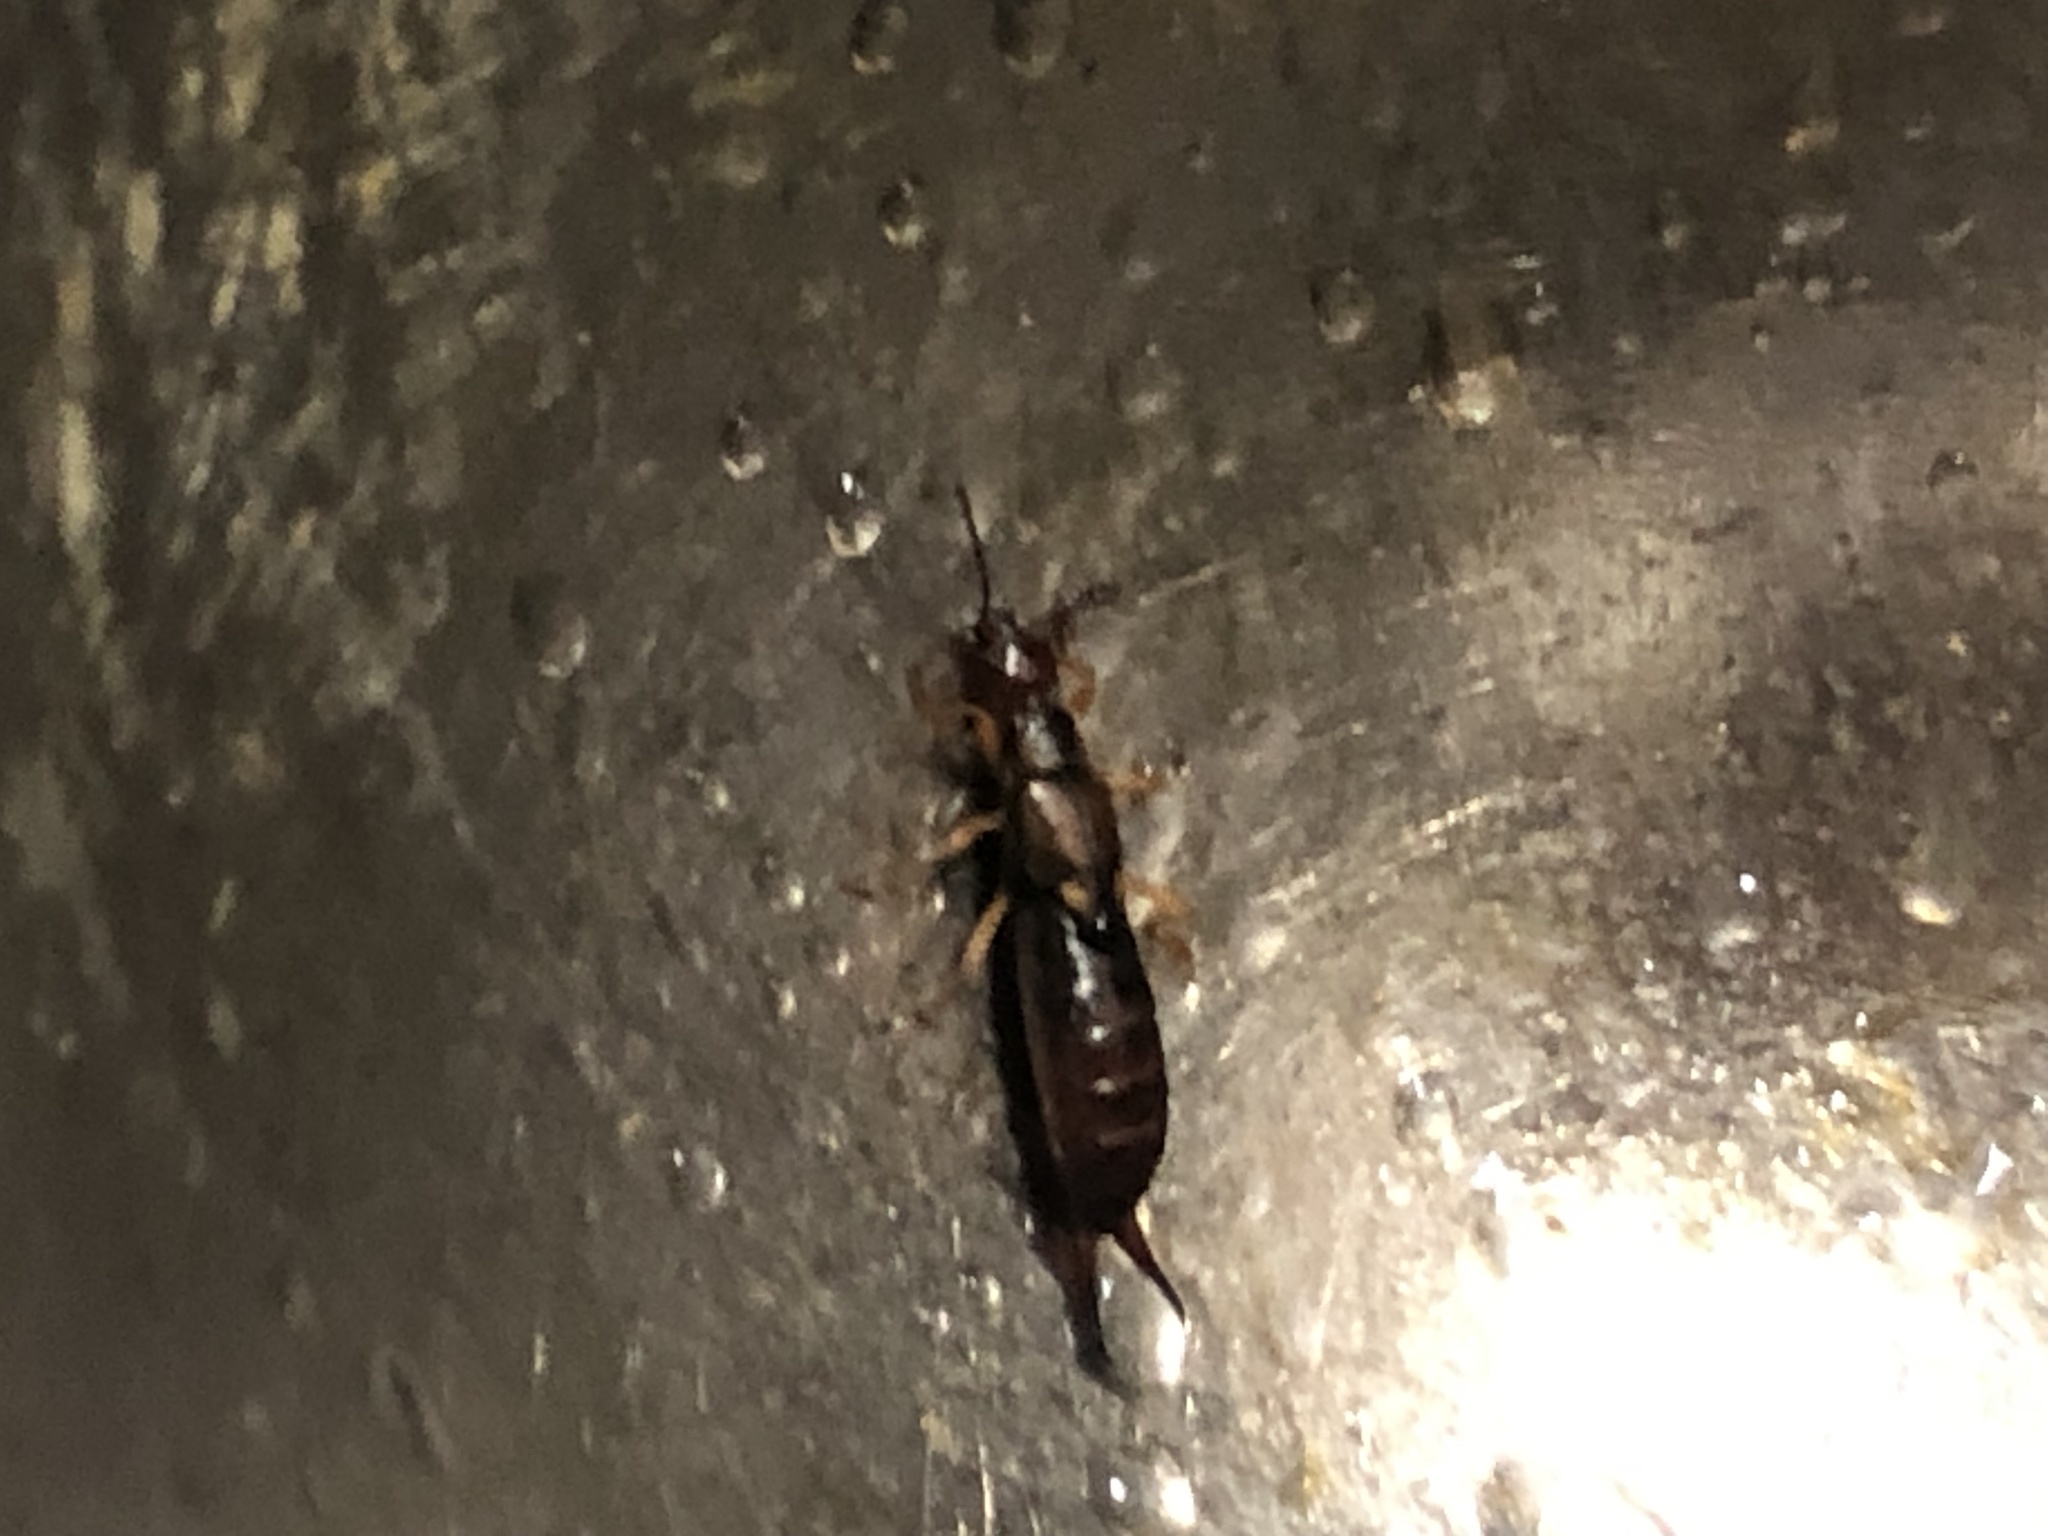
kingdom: Animalia
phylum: Arthropoda
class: Insecta
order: Dermaptera
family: Forficulidae
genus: Forficula
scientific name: Forficula
